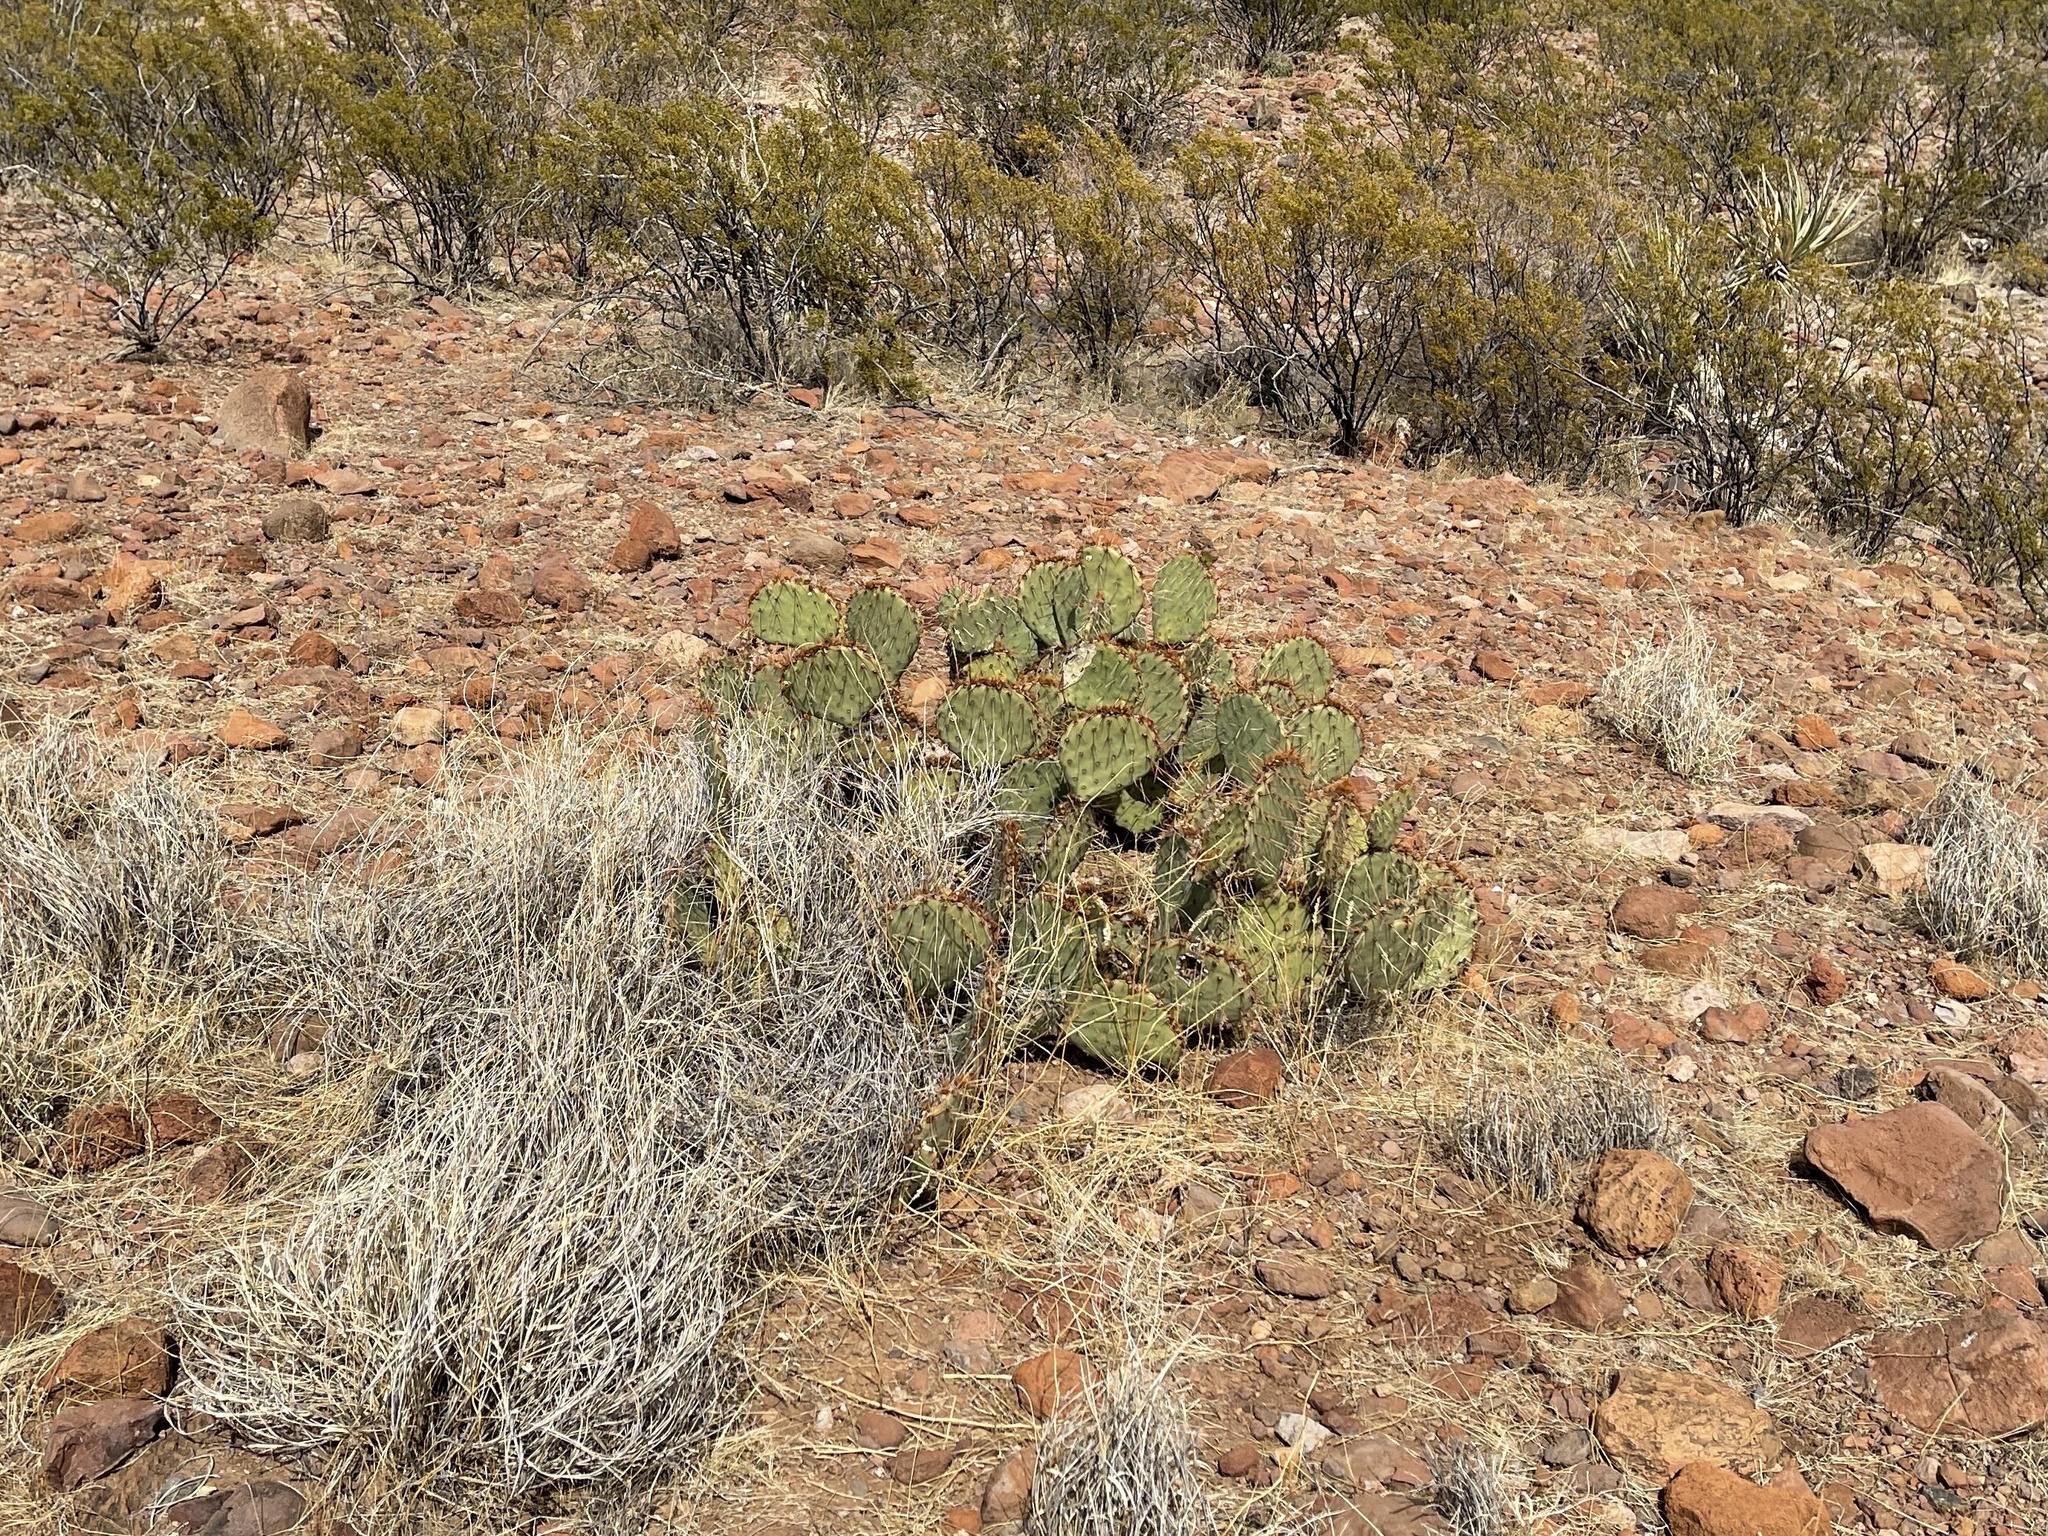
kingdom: Plantae
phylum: Tracheophyta
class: Magnoliopsida
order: Caryophyllales
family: Cactaceae
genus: Opuntia
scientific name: Opuntia phaeacantha
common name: New mexico prickly-pear
